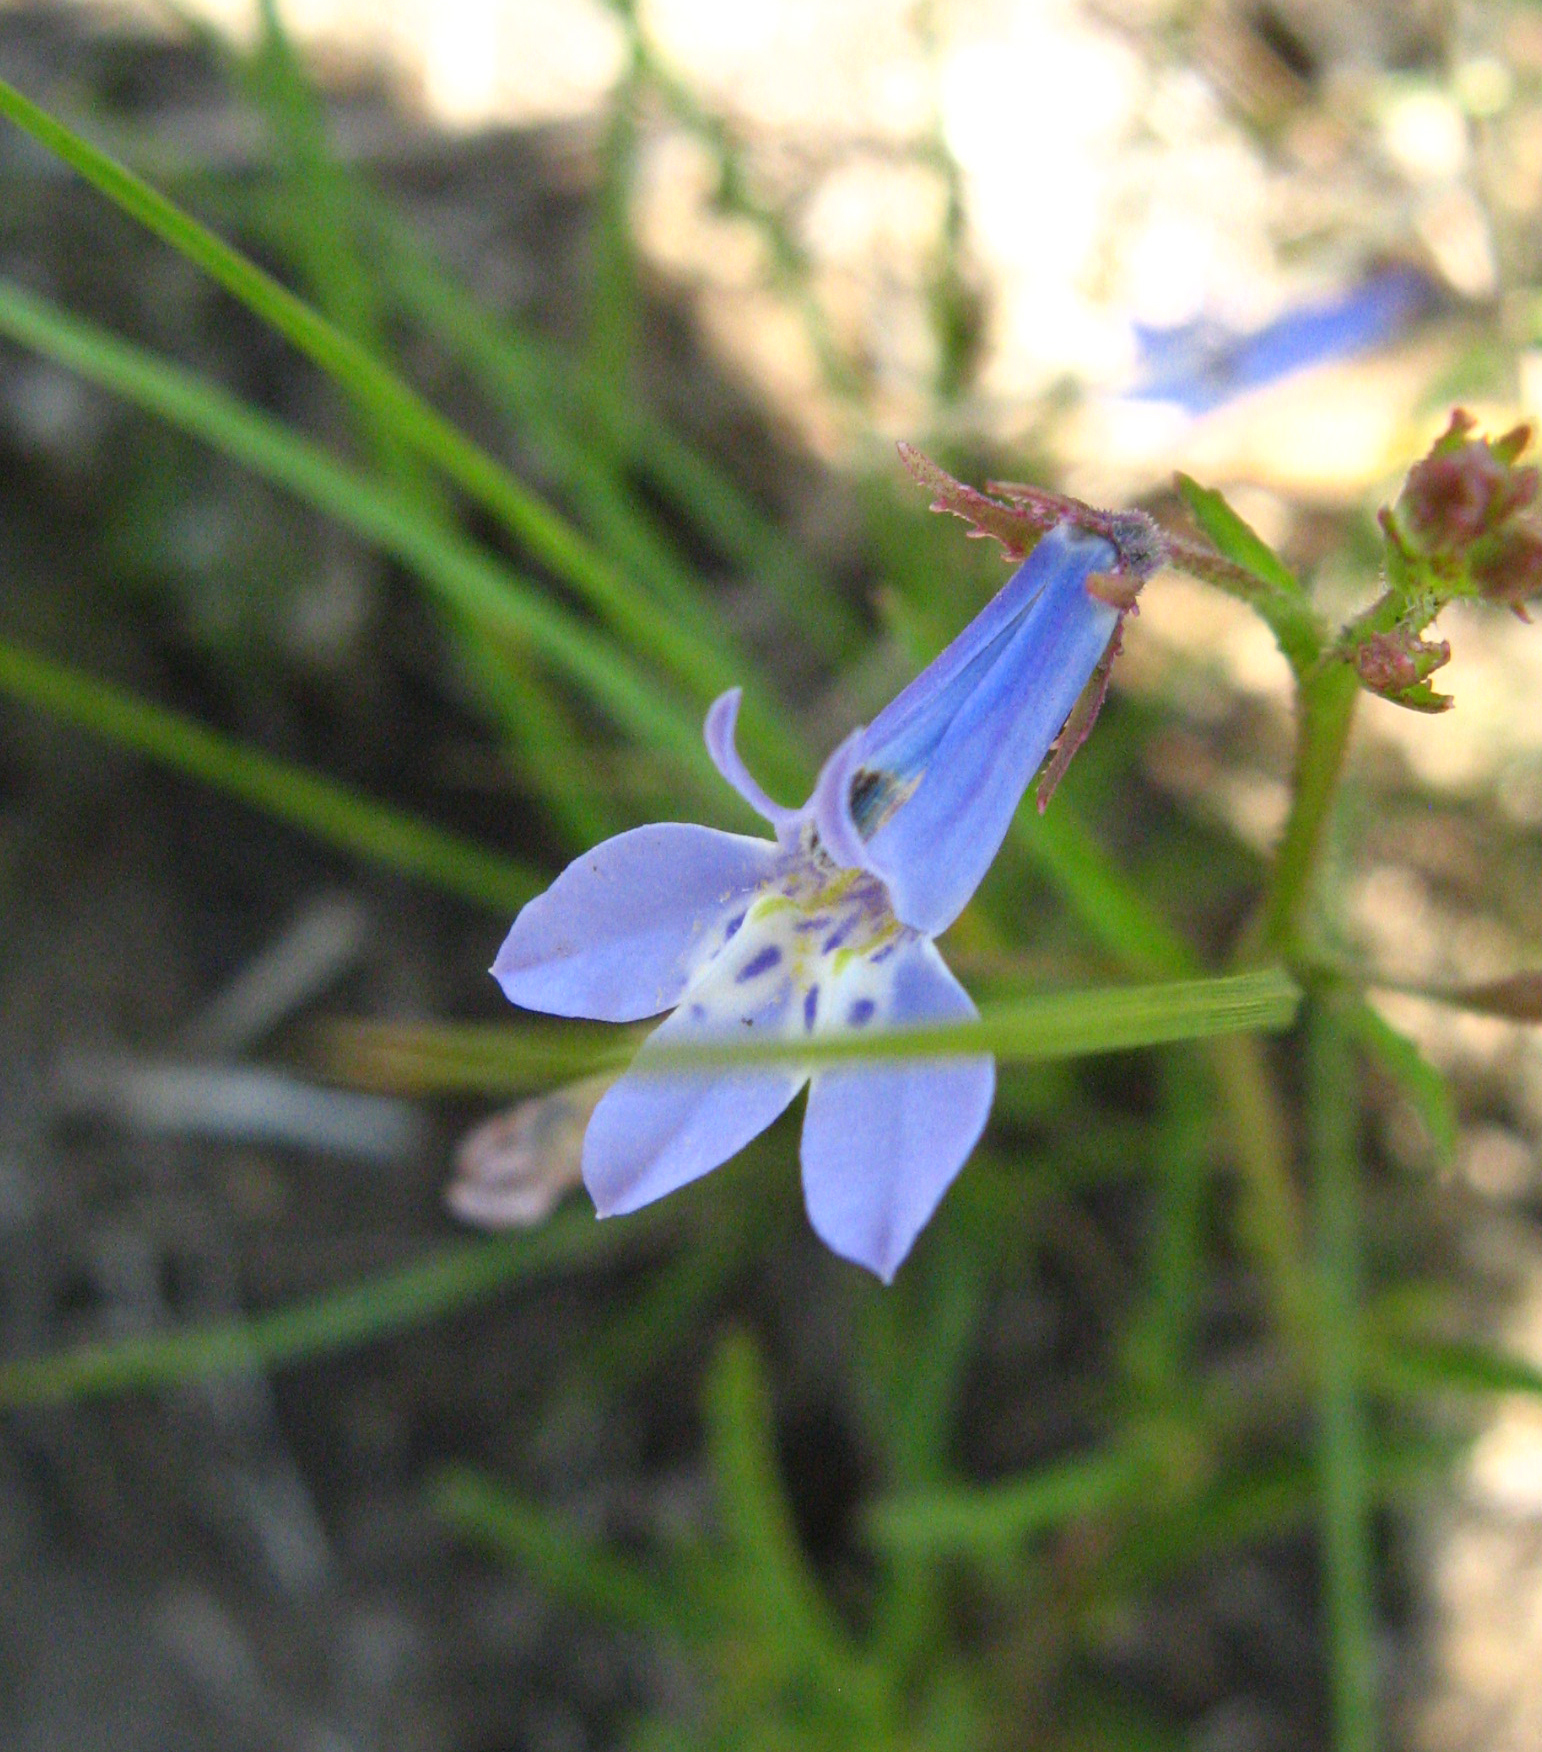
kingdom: Plantae
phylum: Tracheophyta
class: Magnoliopsida
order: Asterales
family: Campanulaceae
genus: Lobelia
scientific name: Lobelia flaccida
